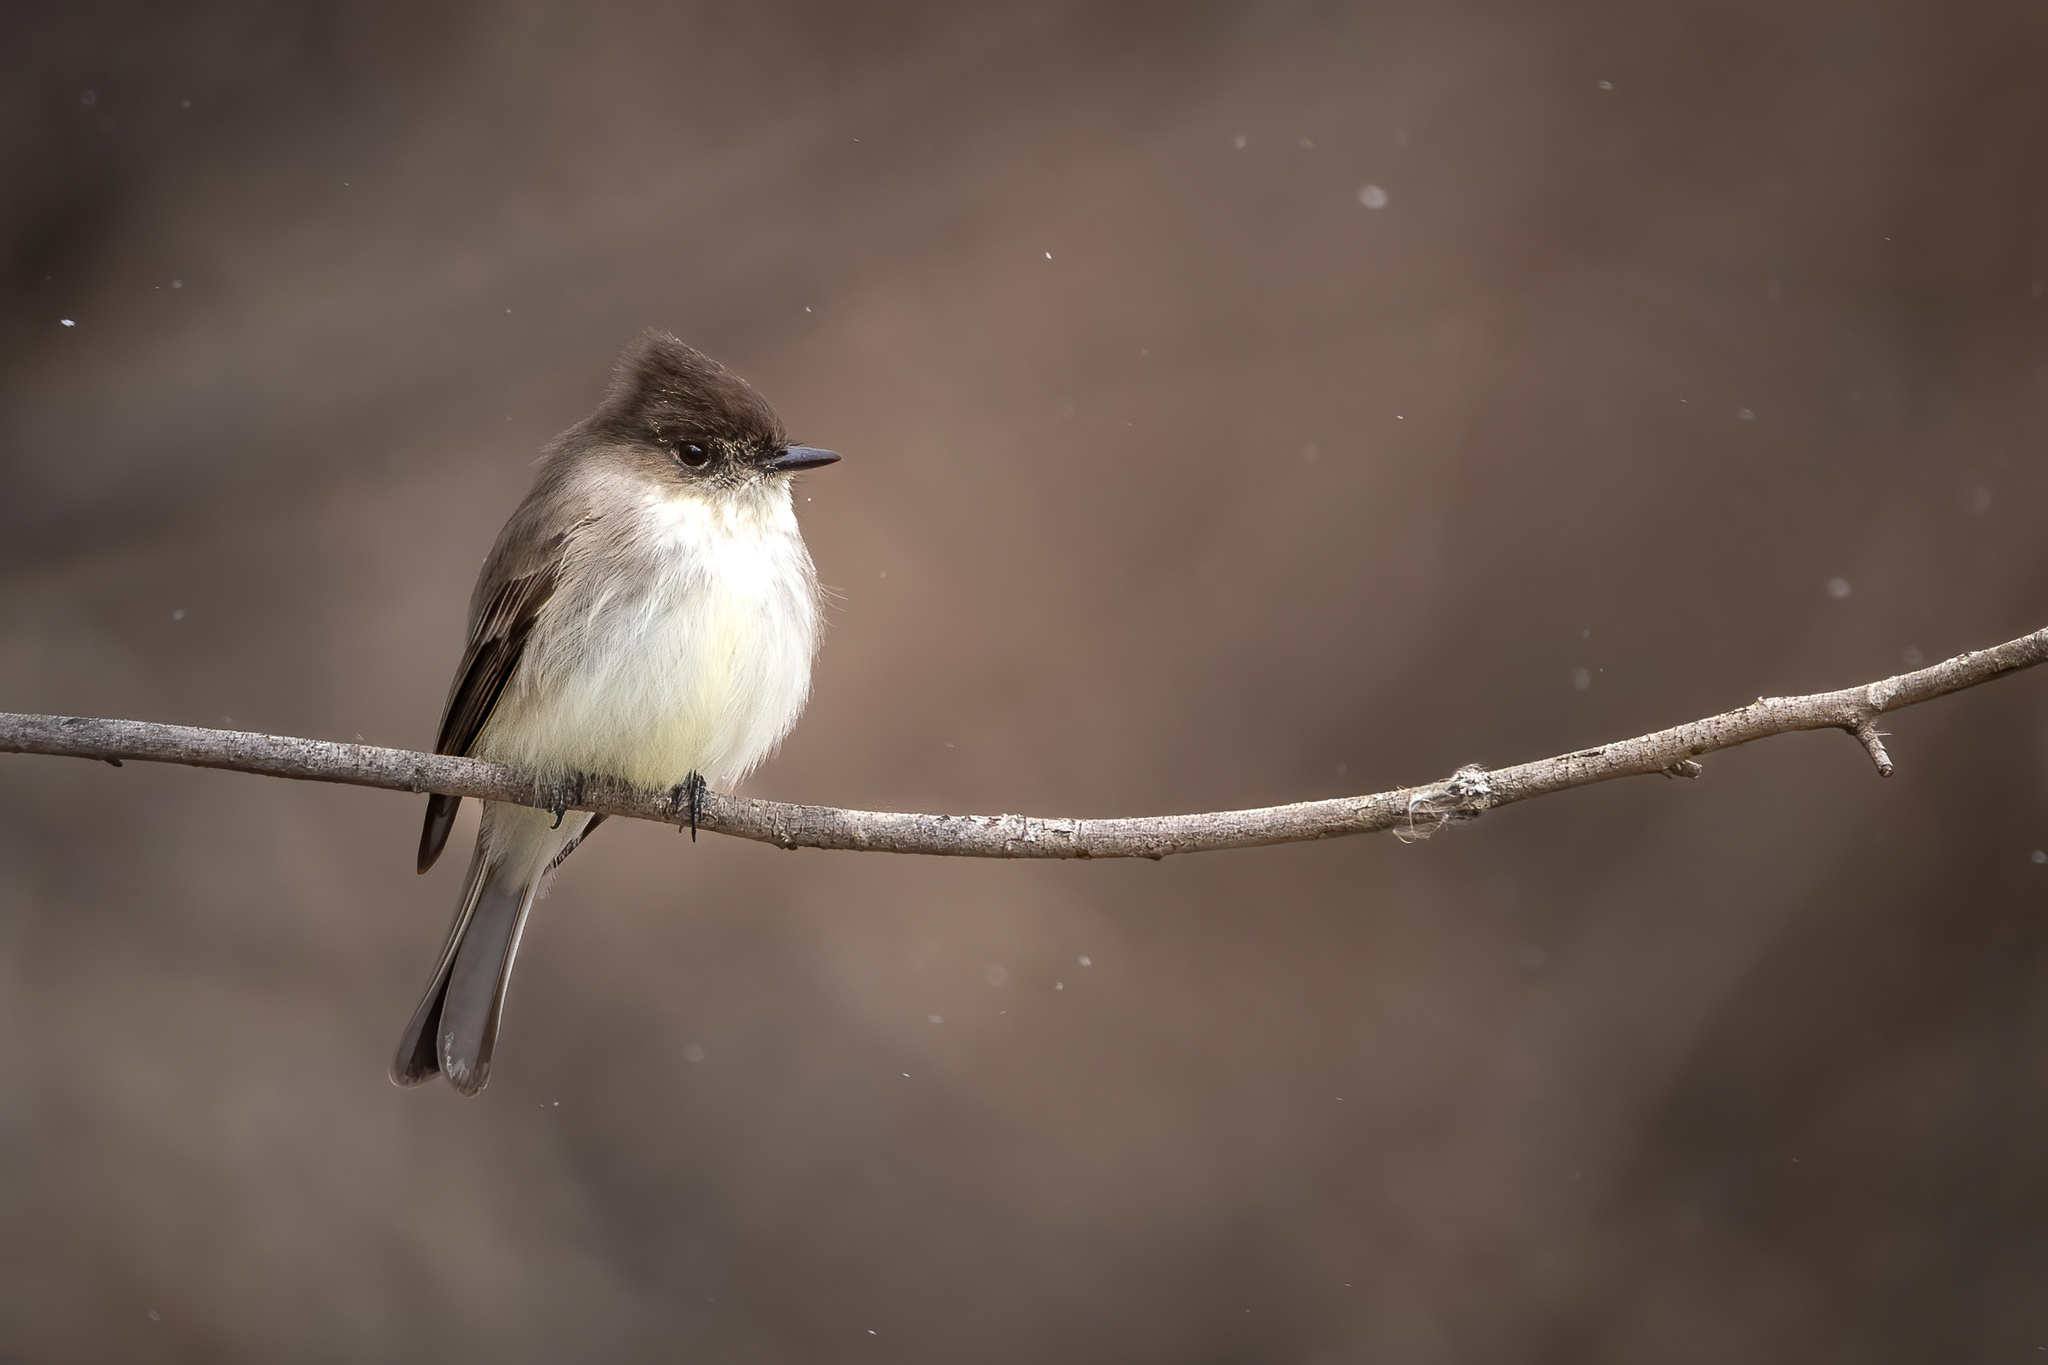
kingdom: Animalia
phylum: Chordata
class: Aves
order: Passeriformes
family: Tyrannidae
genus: Sayornis
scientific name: Sayornis phoebe
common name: Eastern phoebe
